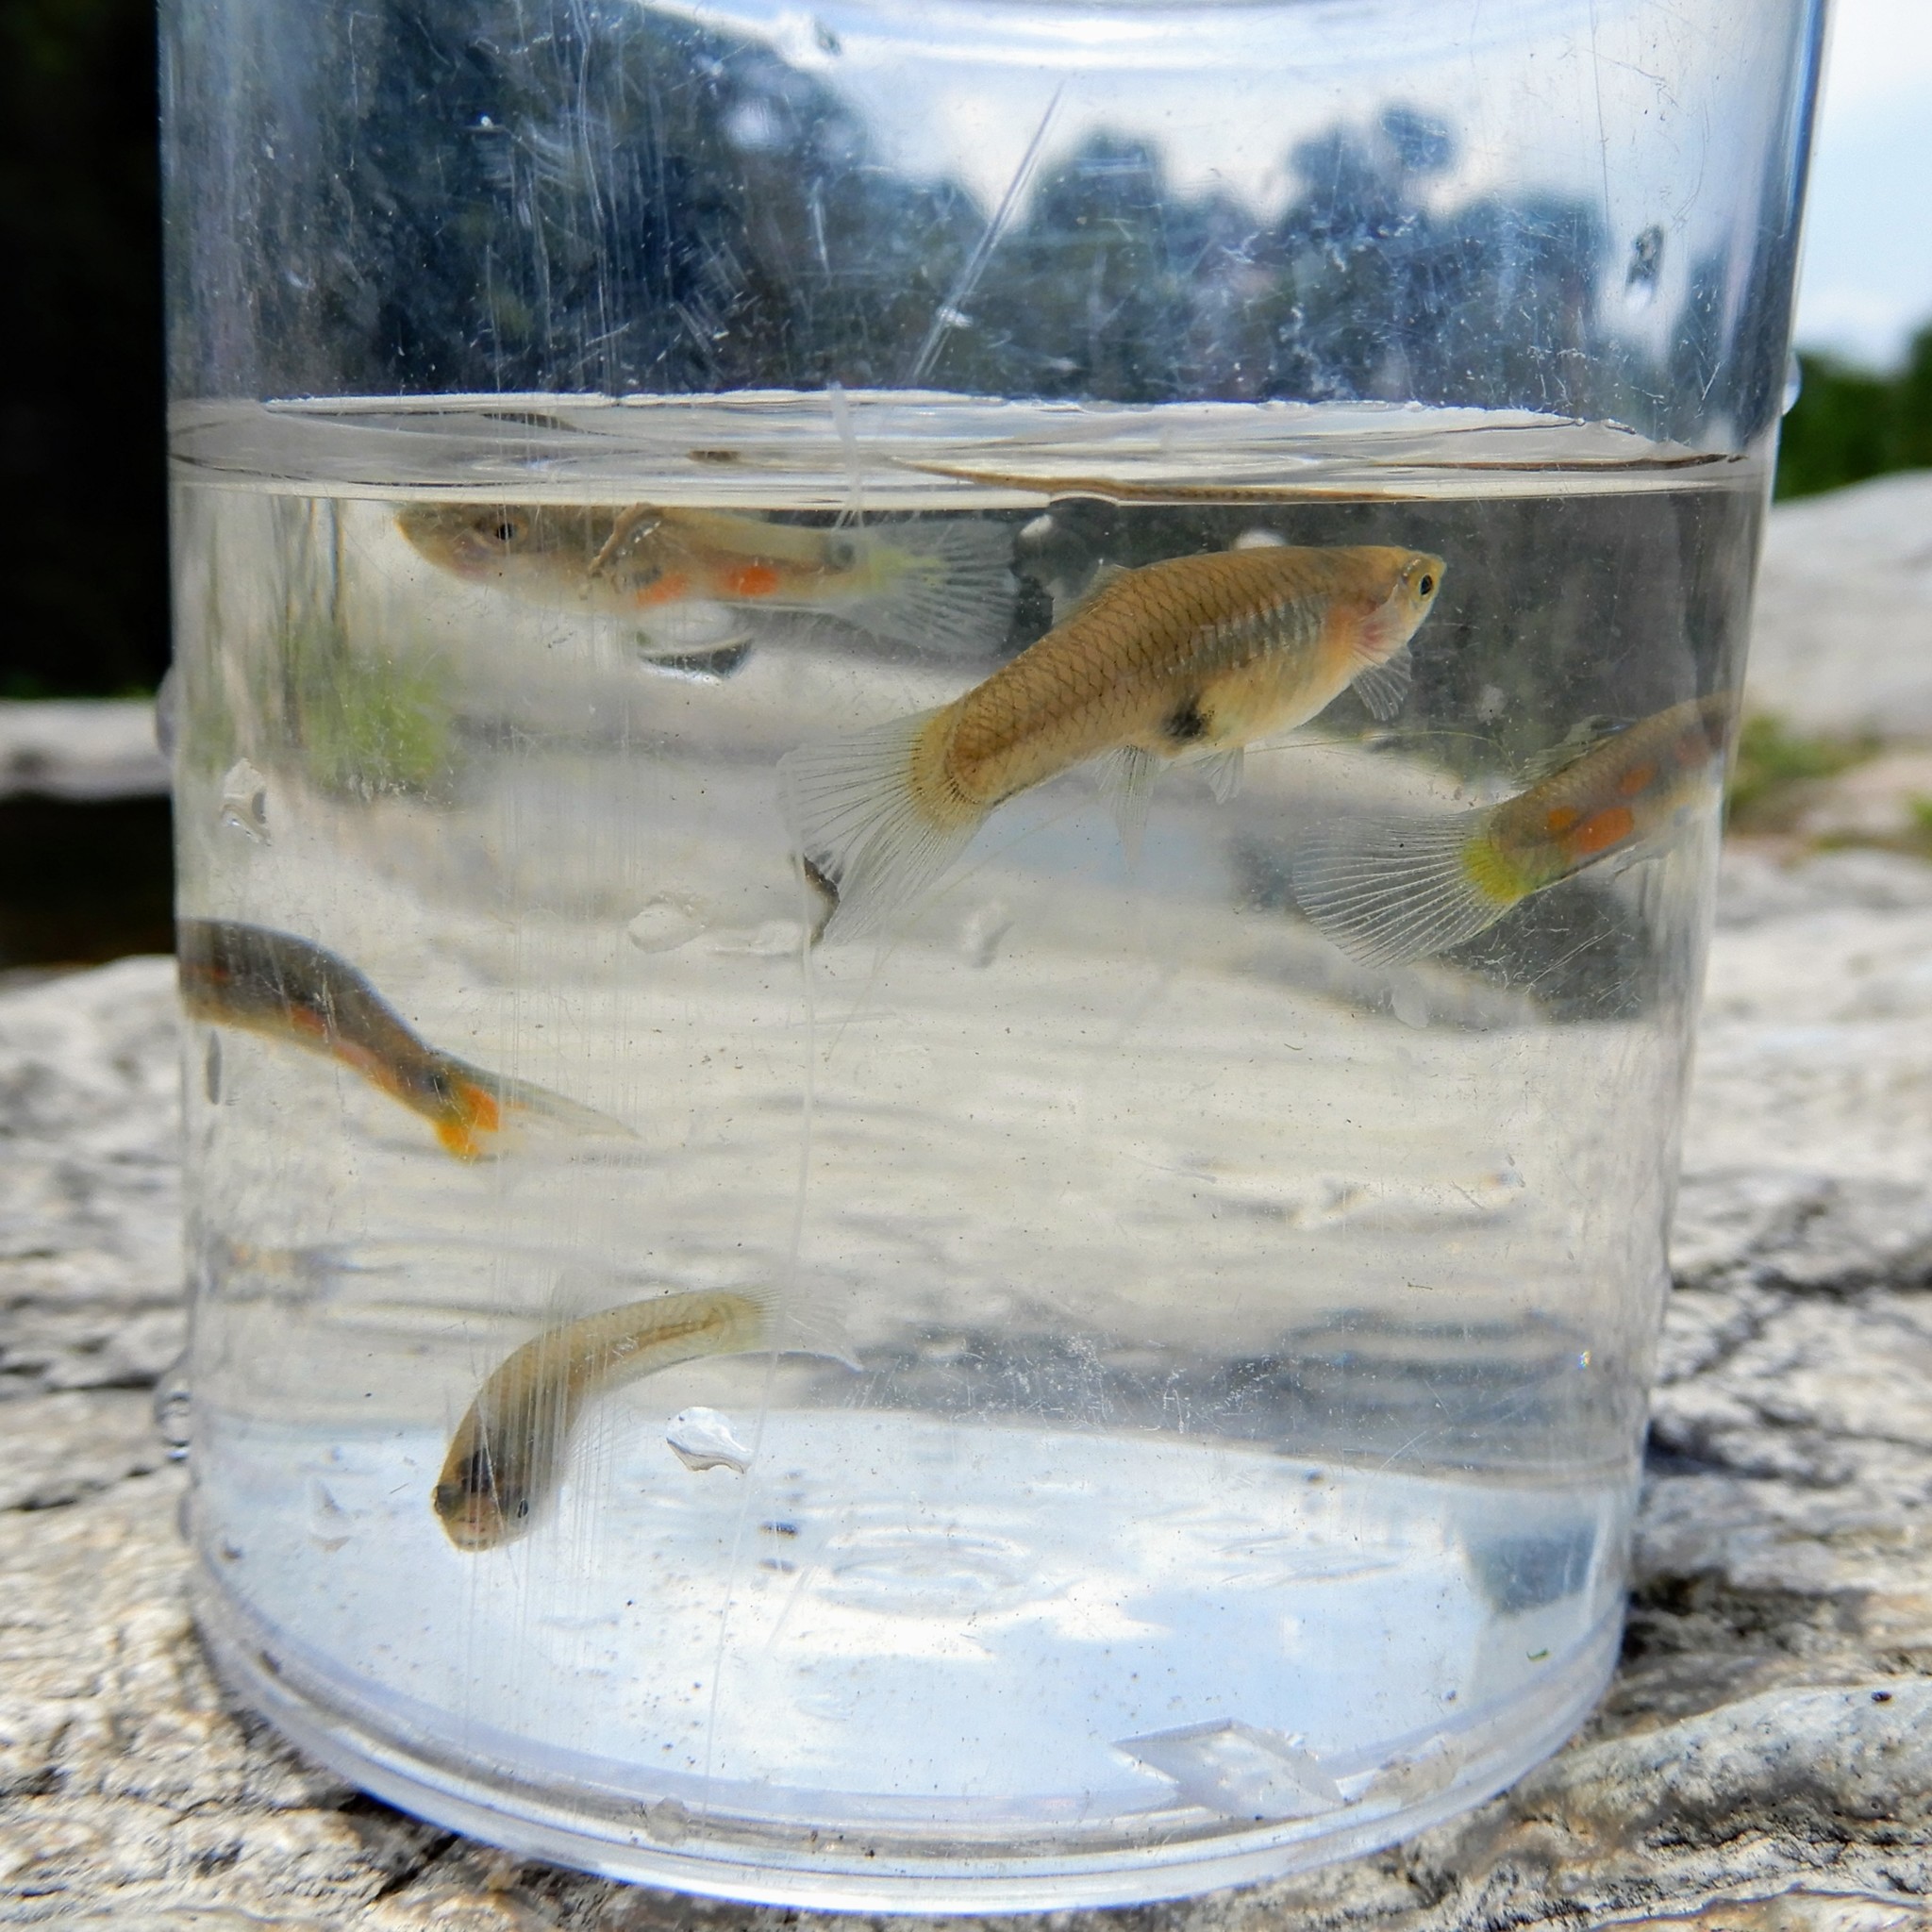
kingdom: Animalia
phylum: Chordata
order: Cyprinodontiformes
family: Poeciliidae
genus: Poecilia
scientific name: Poecilia reticulata
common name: Guppy
